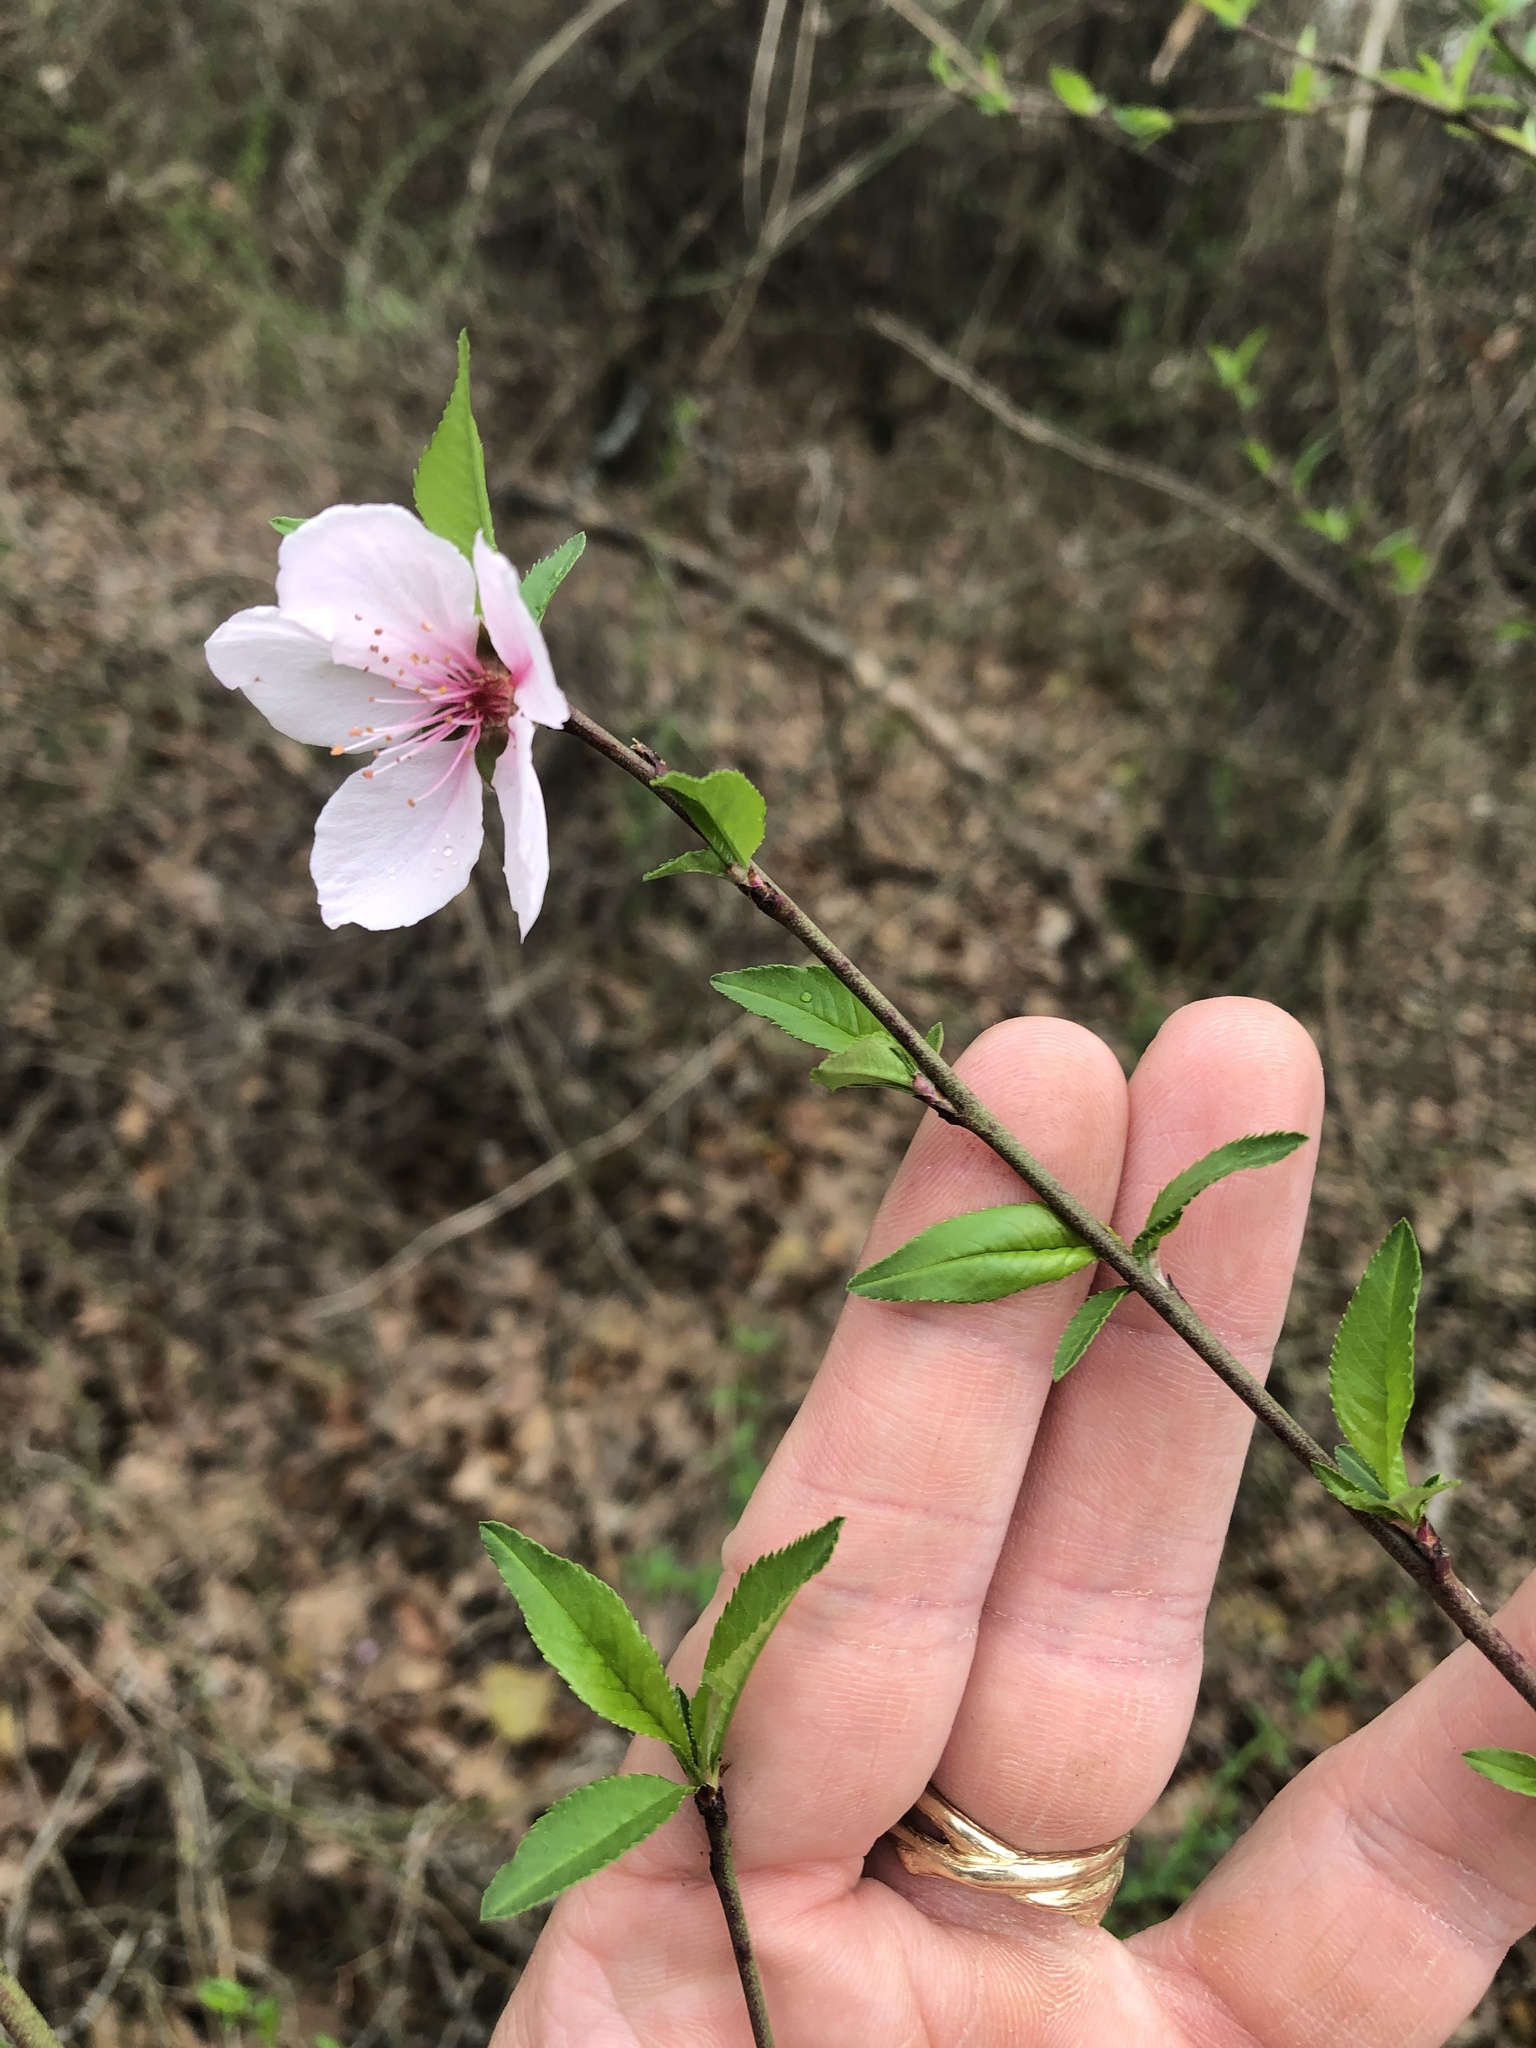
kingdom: Plantae
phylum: Tracheophyta
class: Magnoliopsida
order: Rosales
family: Rosaceae
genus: Prunus
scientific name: Prunus persica
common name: Peach
